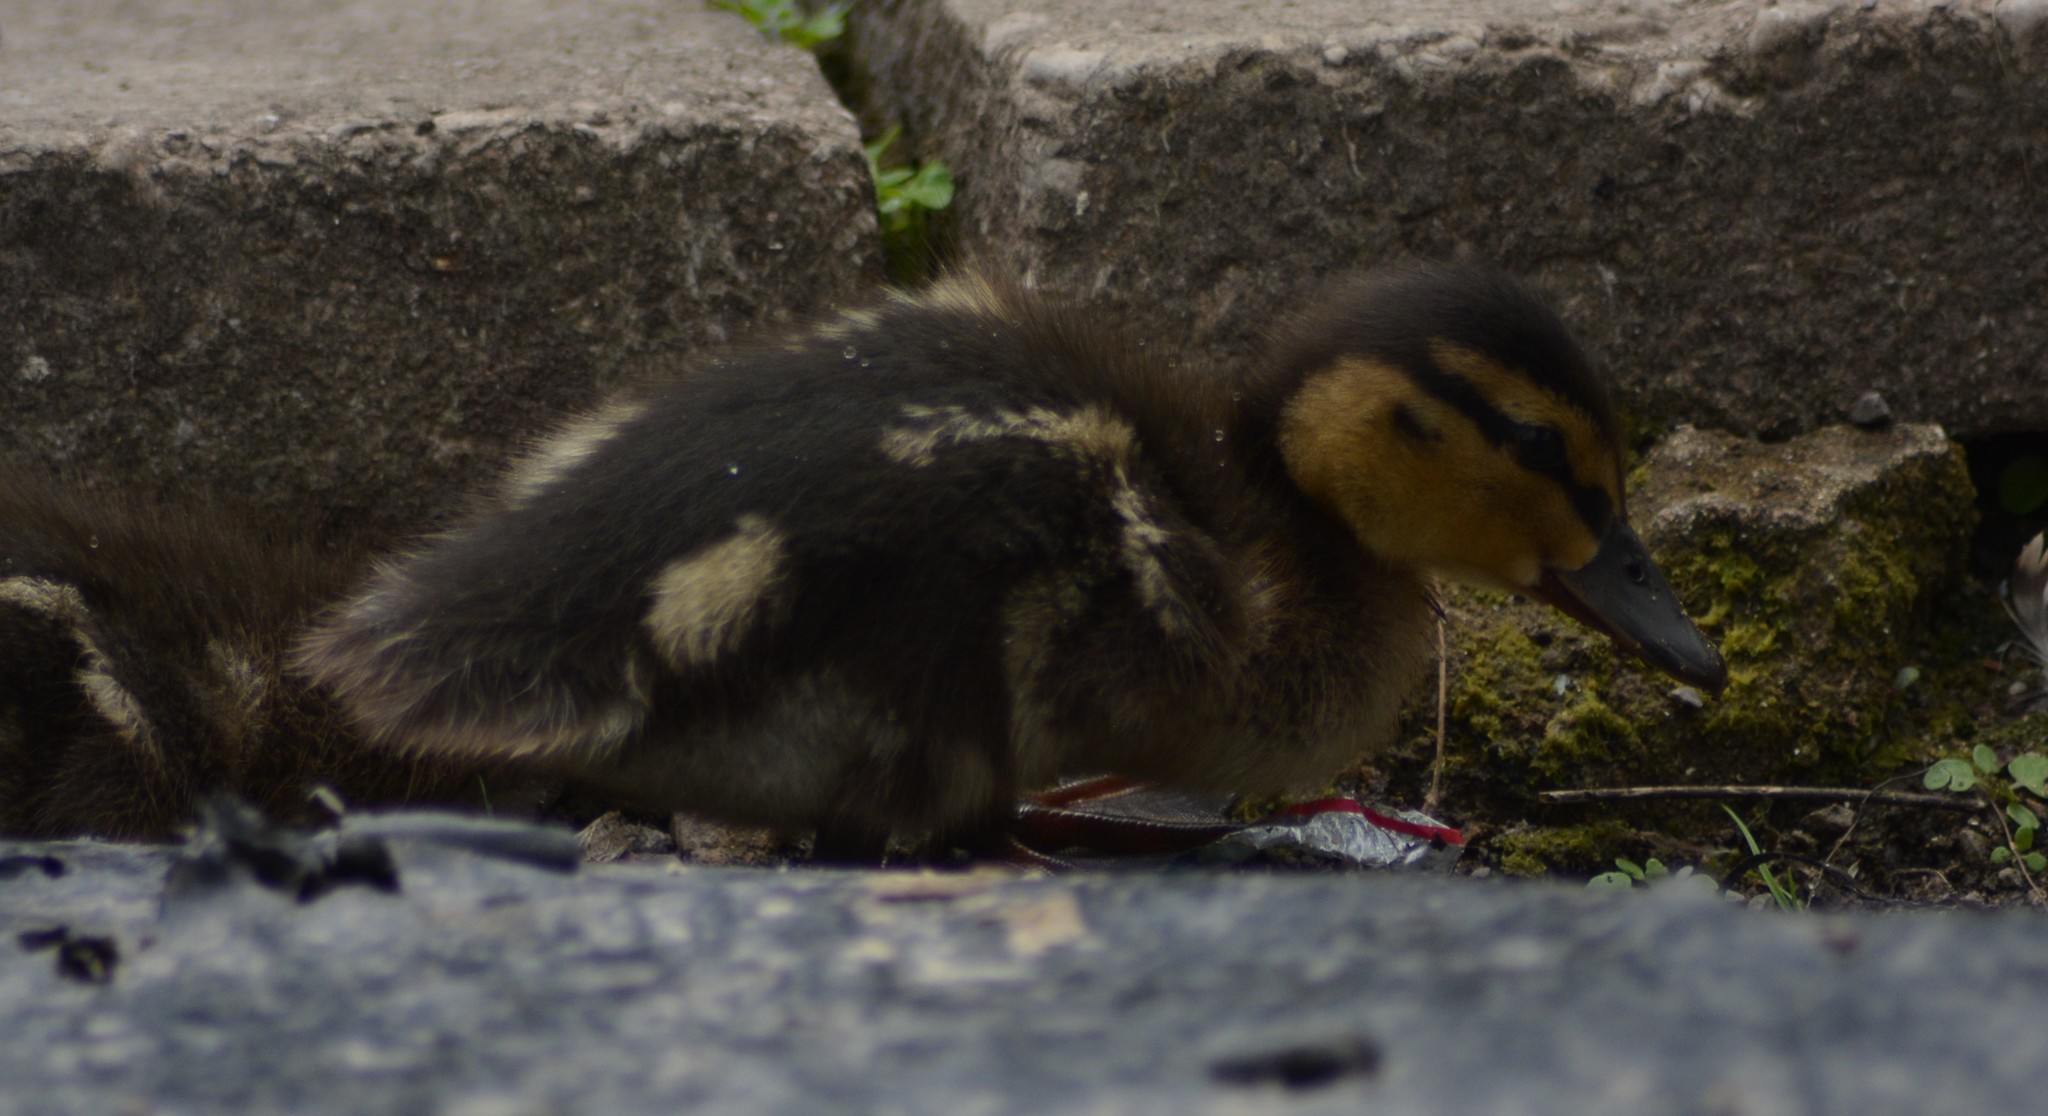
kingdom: Animalia
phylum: Chordata
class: Aves
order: Anseriformes
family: Anatidae
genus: Anas
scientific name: Anas platyrhynchos
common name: Mallard
